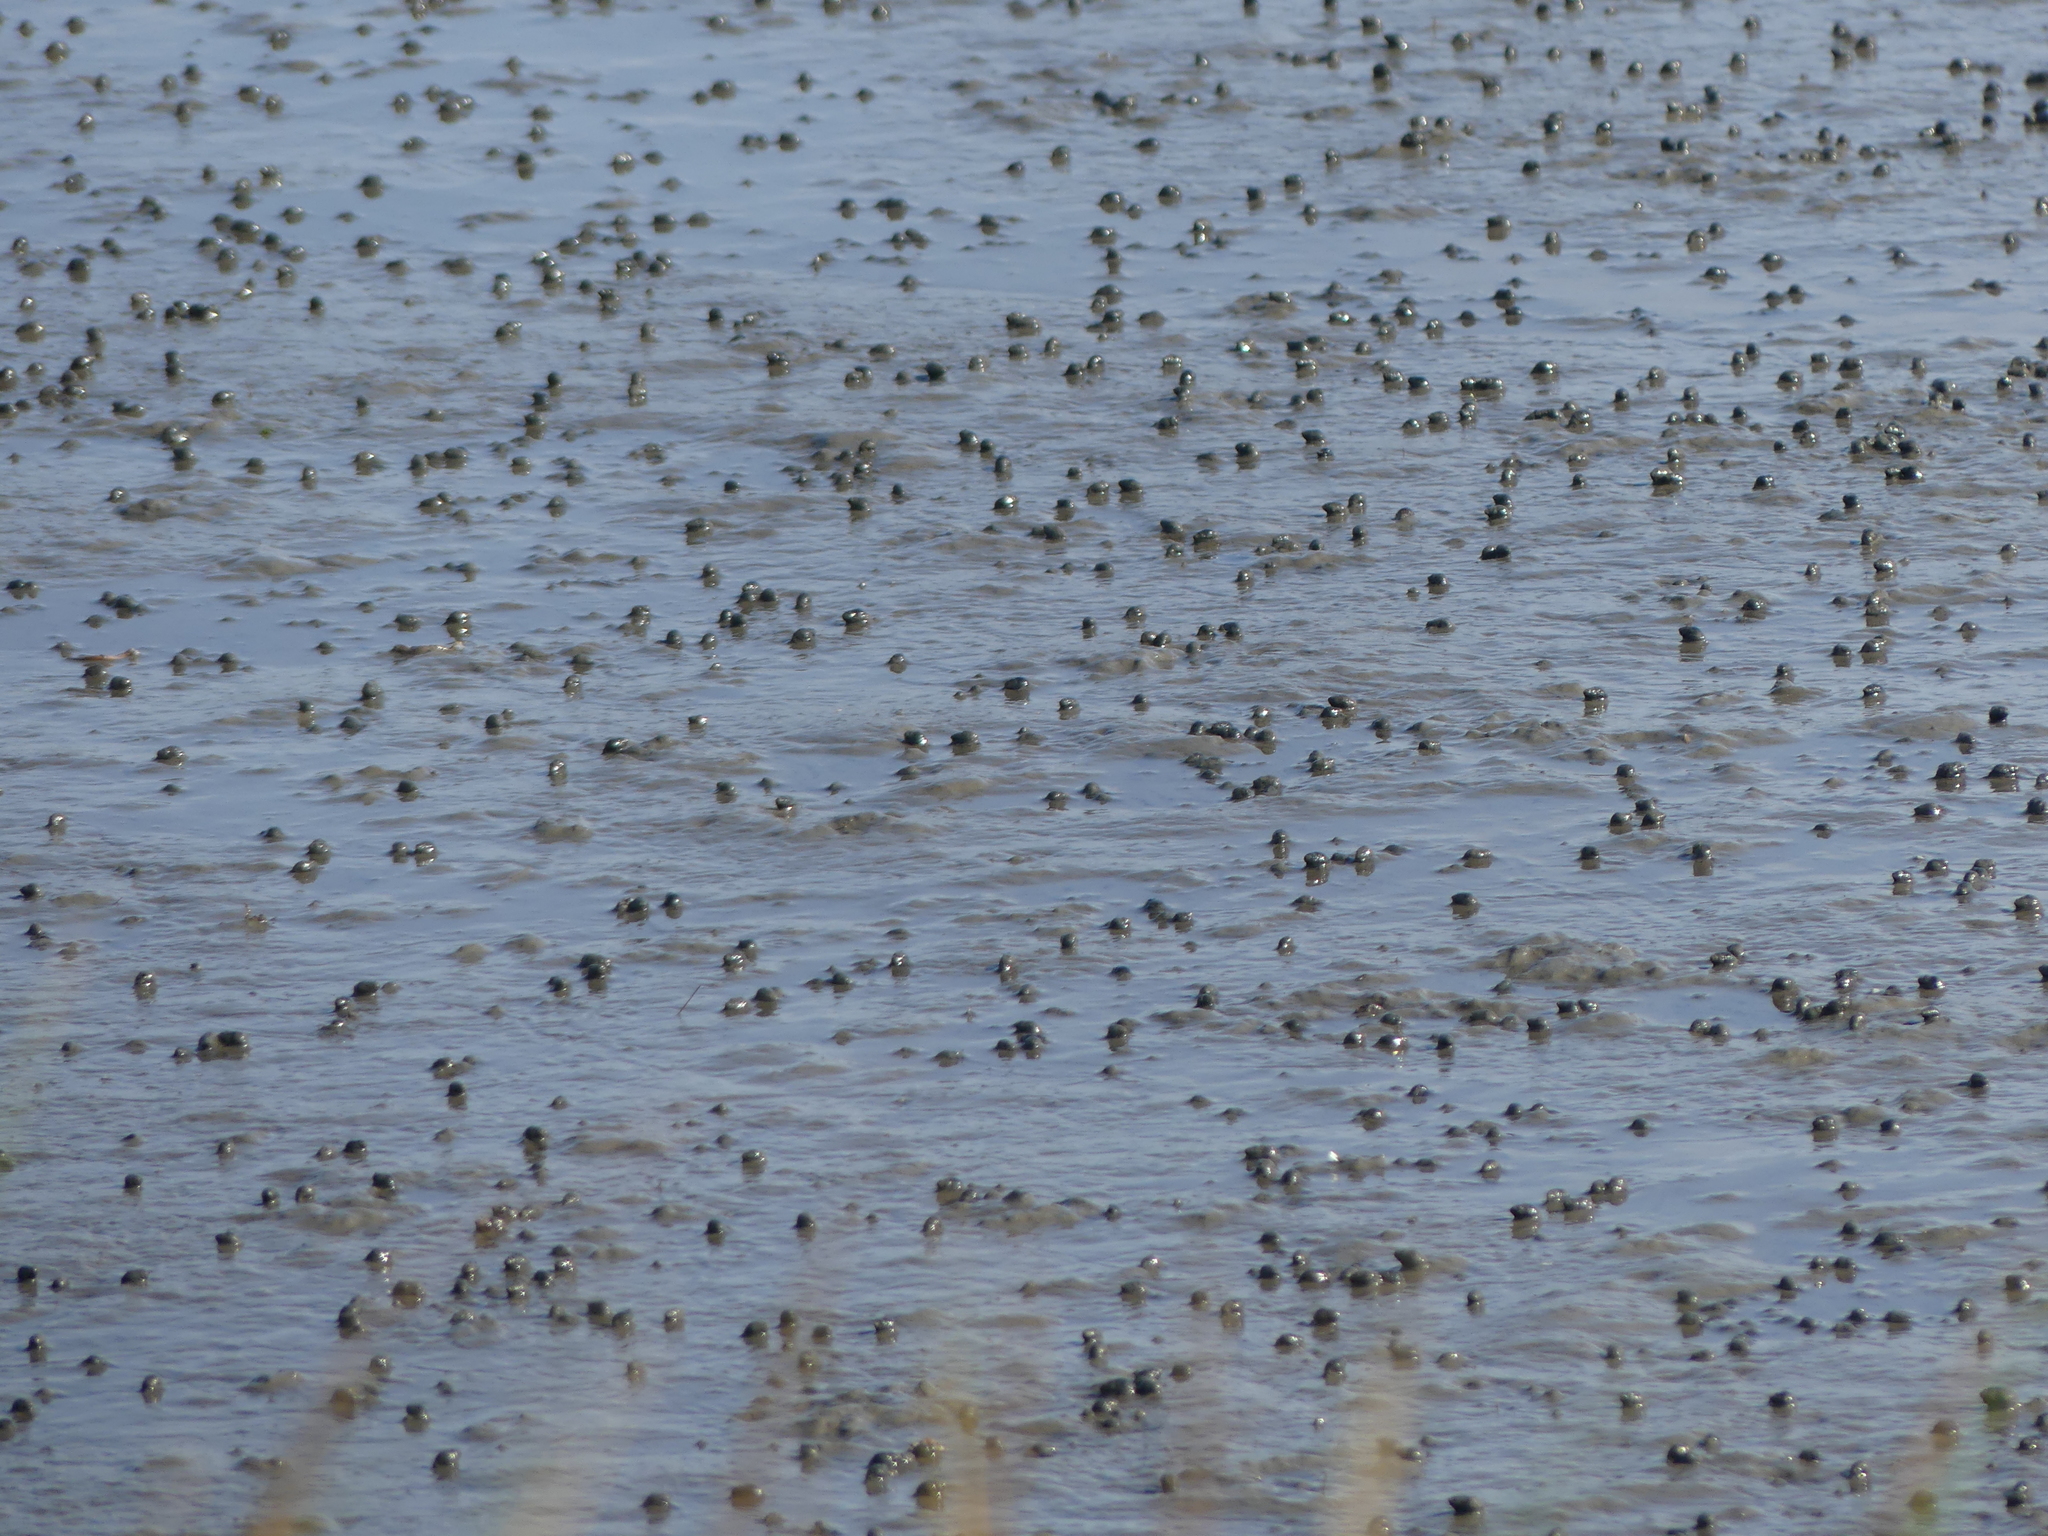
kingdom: Animalia
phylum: Mollusca
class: Gastropoda
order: Neogastropoda
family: Nassariidae
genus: Ilyanassa
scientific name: Ilyanassa obsoleta
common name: Eastern mudsnail
